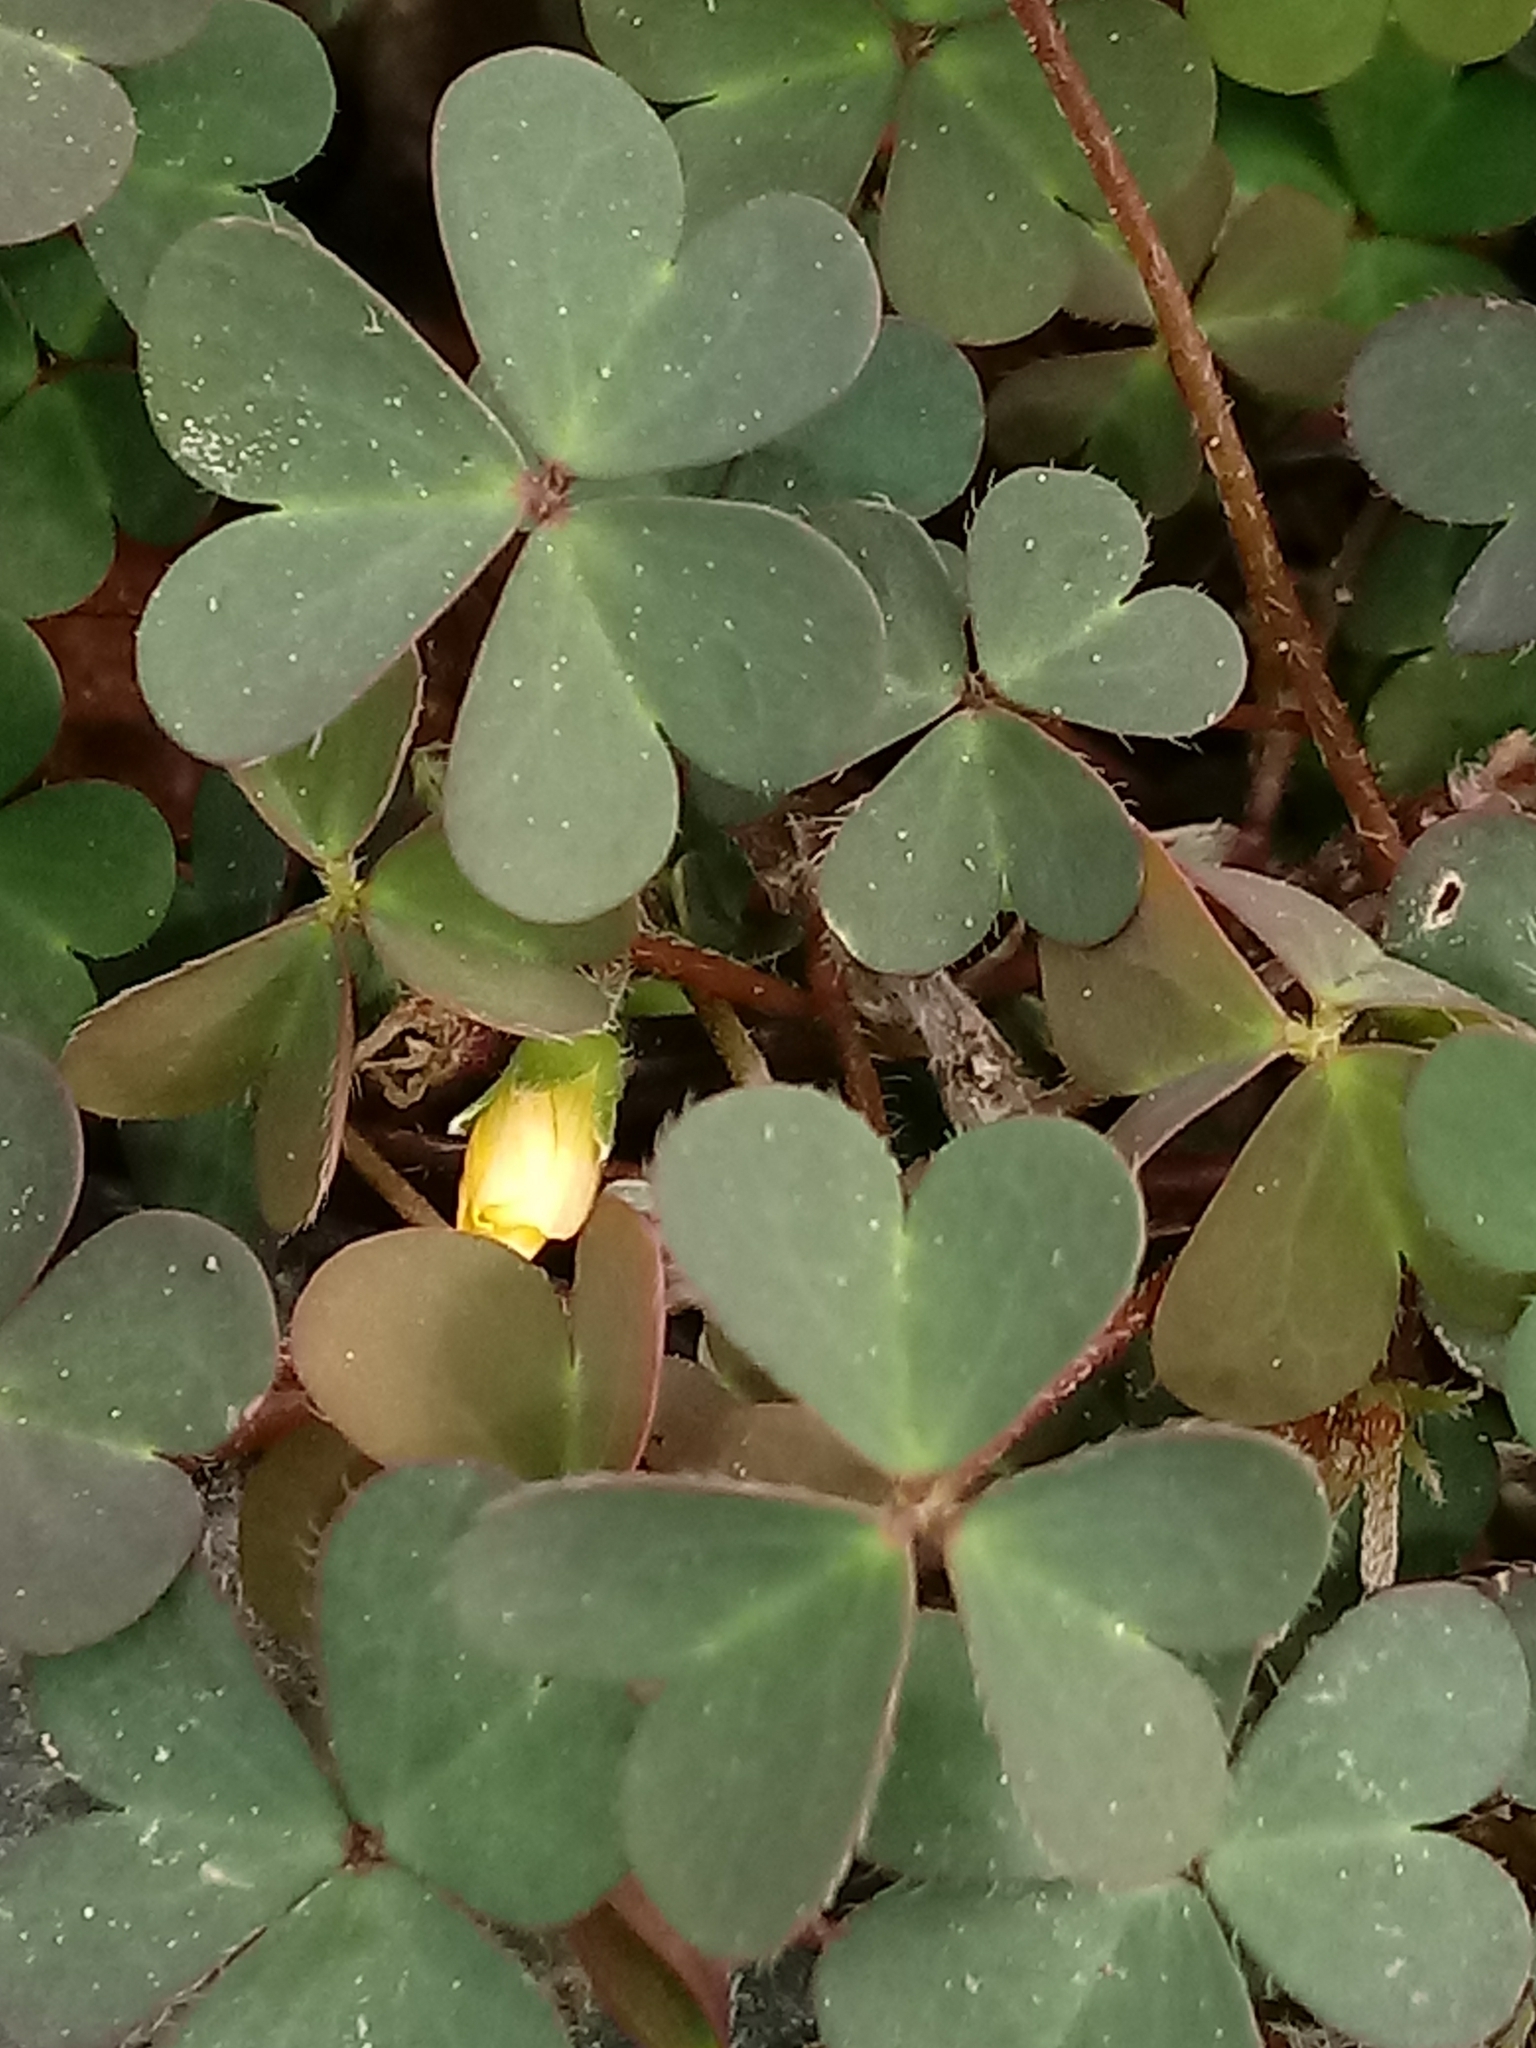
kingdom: Plantae
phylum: Tracheophyta
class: Magnoliopsida
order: Oxalidales
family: Oxalidaceae
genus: Oxalis
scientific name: Oxalis corniculata
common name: Procumbent yellow-sorrel
